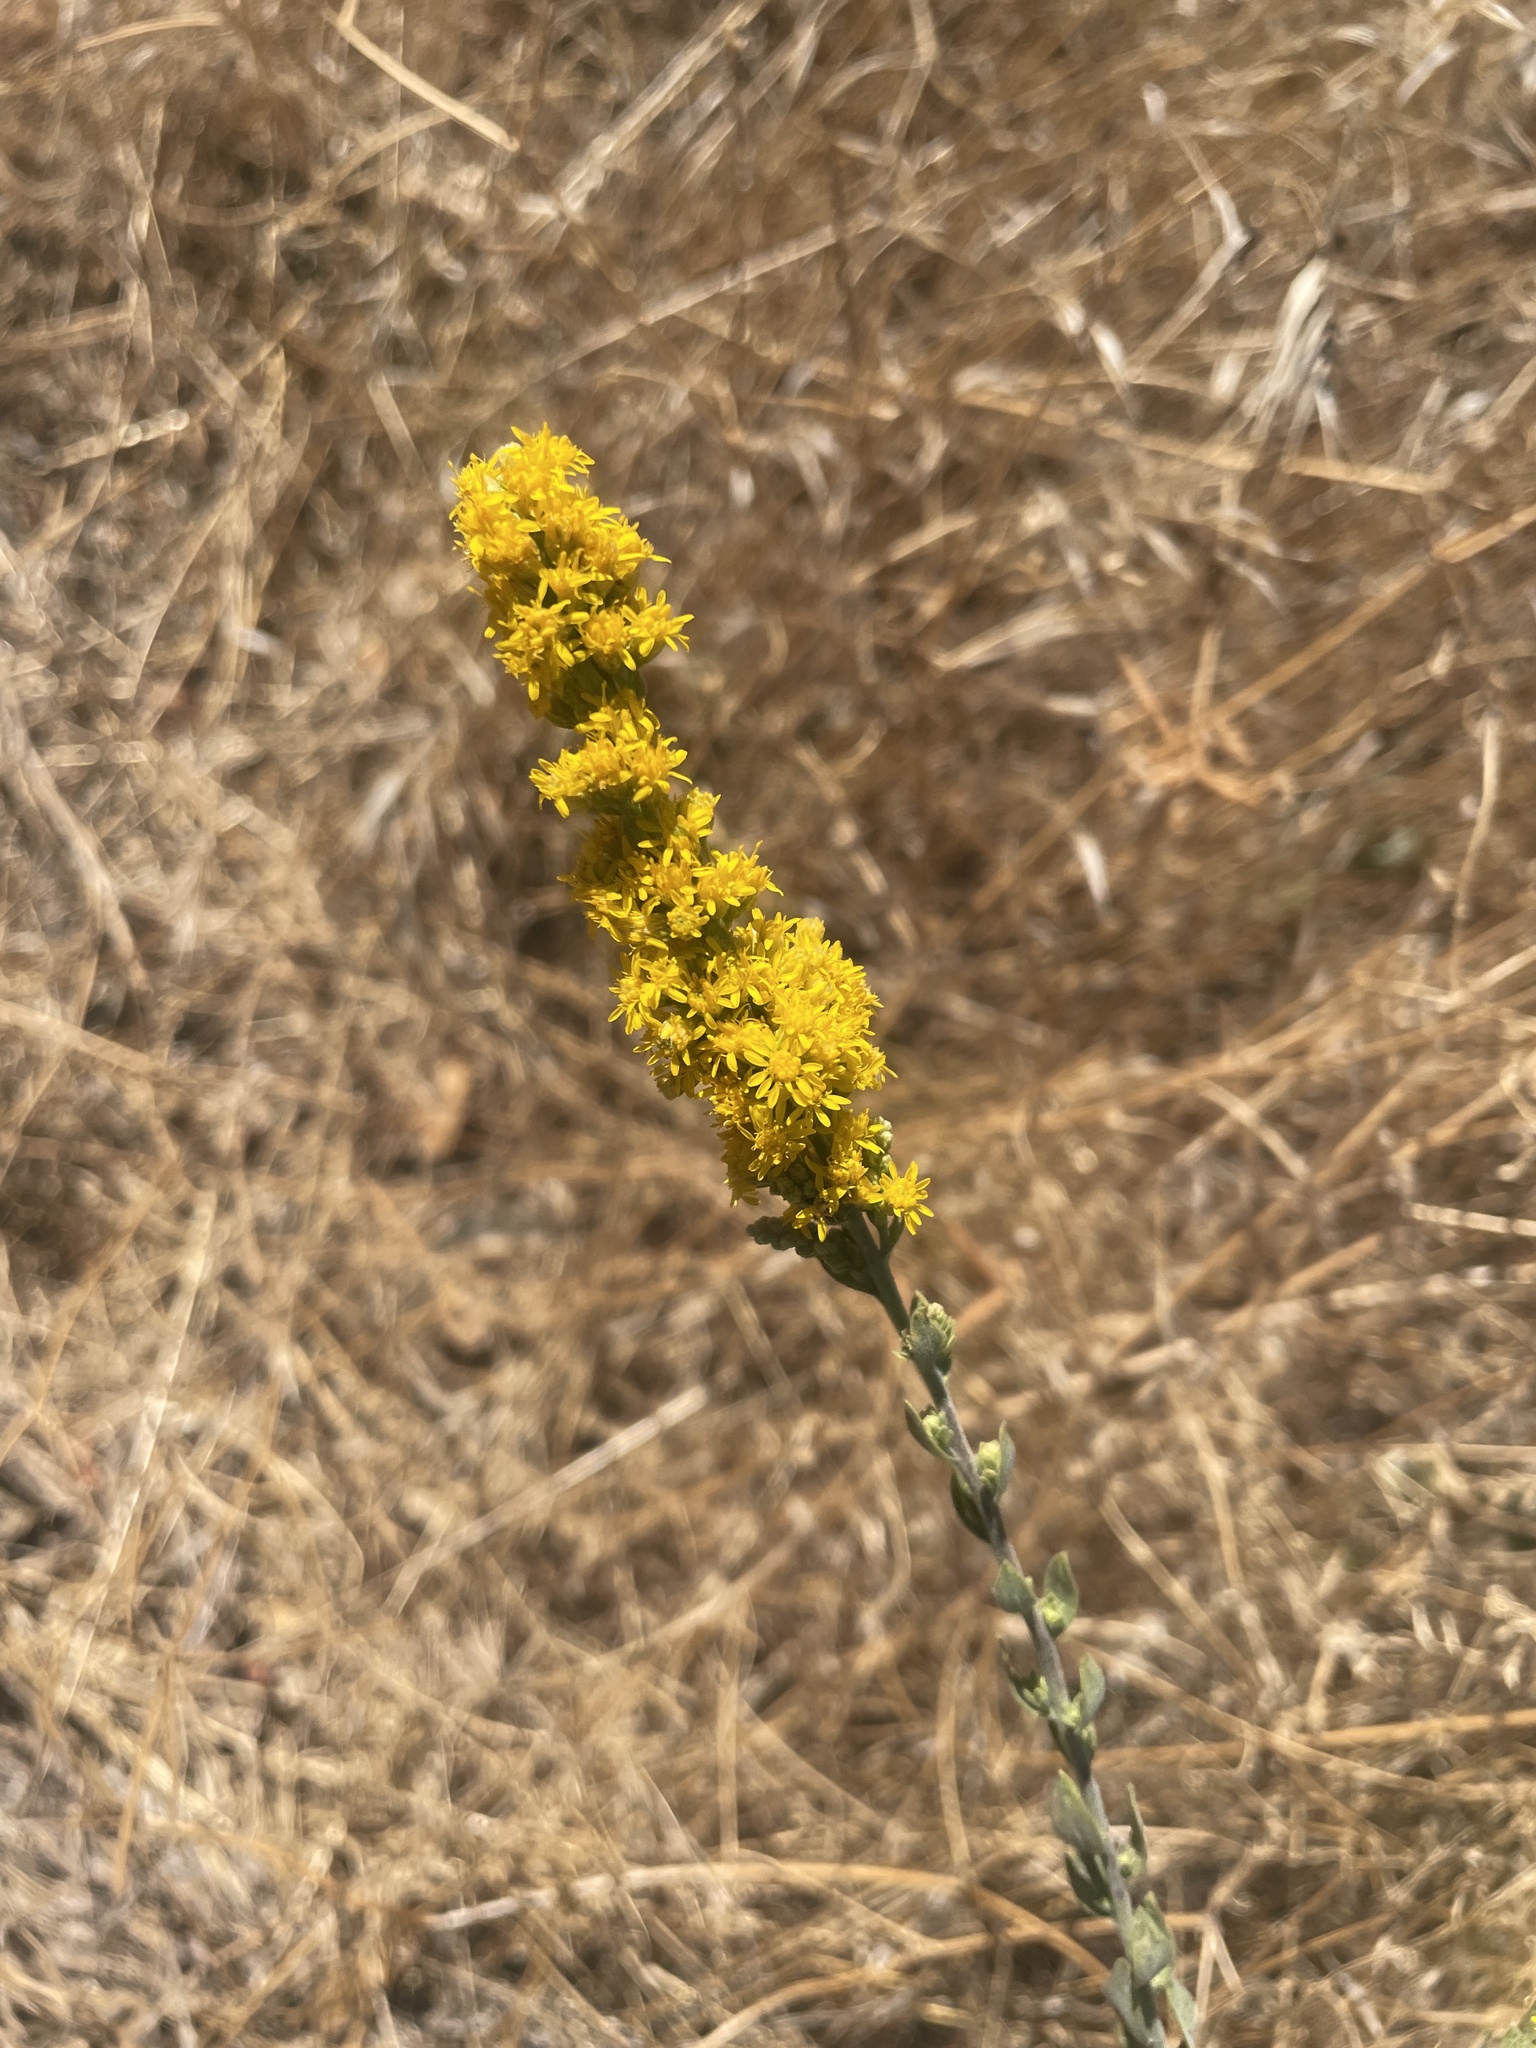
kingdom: Plantae
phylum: Tracheophyta
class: Magnoliopsida
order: Asterales
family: Asteraceae
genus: Solidago
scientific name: Solidago velutina
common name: Three-nerve goldenrod
